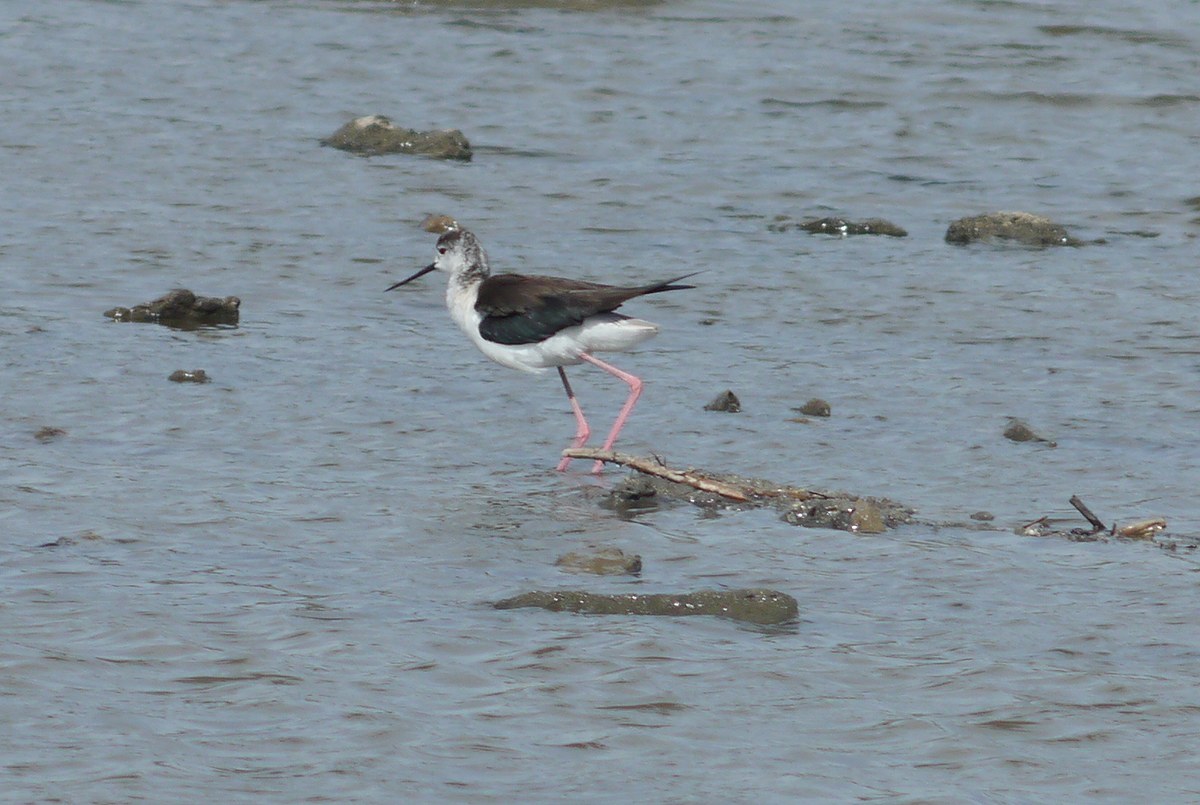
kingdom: Animalia
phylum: Chordata
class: Aves
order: Charadriiformes
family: Recurvirostridae
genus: Himantopus
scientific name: Himantopus himantopus
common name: Black-winged stilt
